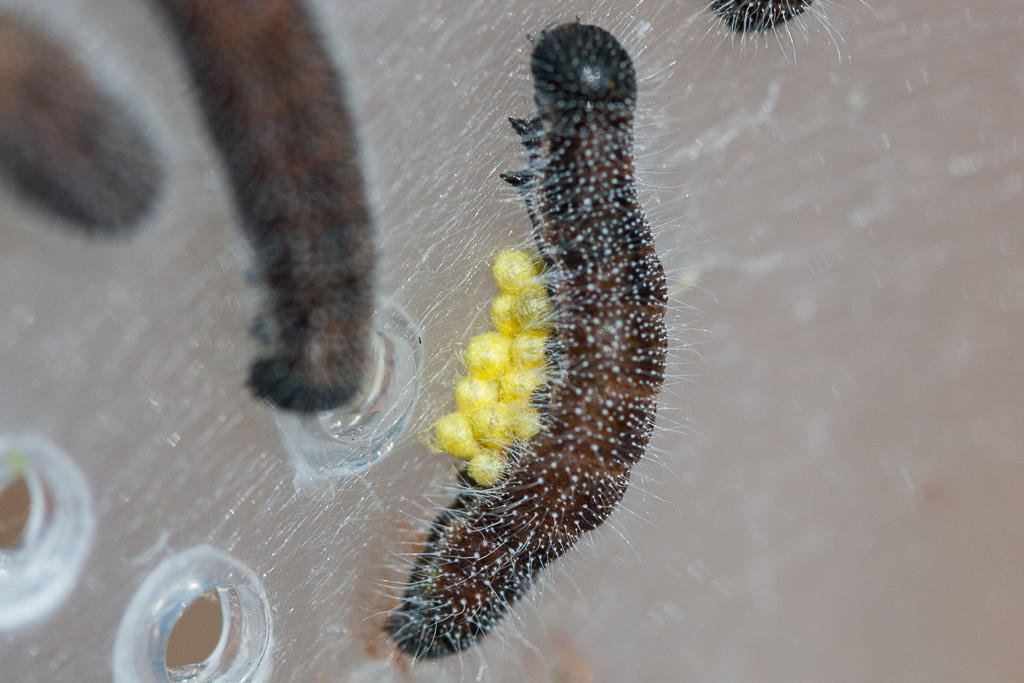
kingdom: Animalia
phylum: Arthropoda
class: Insecta
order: Hymenoptera
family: Braconidae
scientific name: Braconidae
